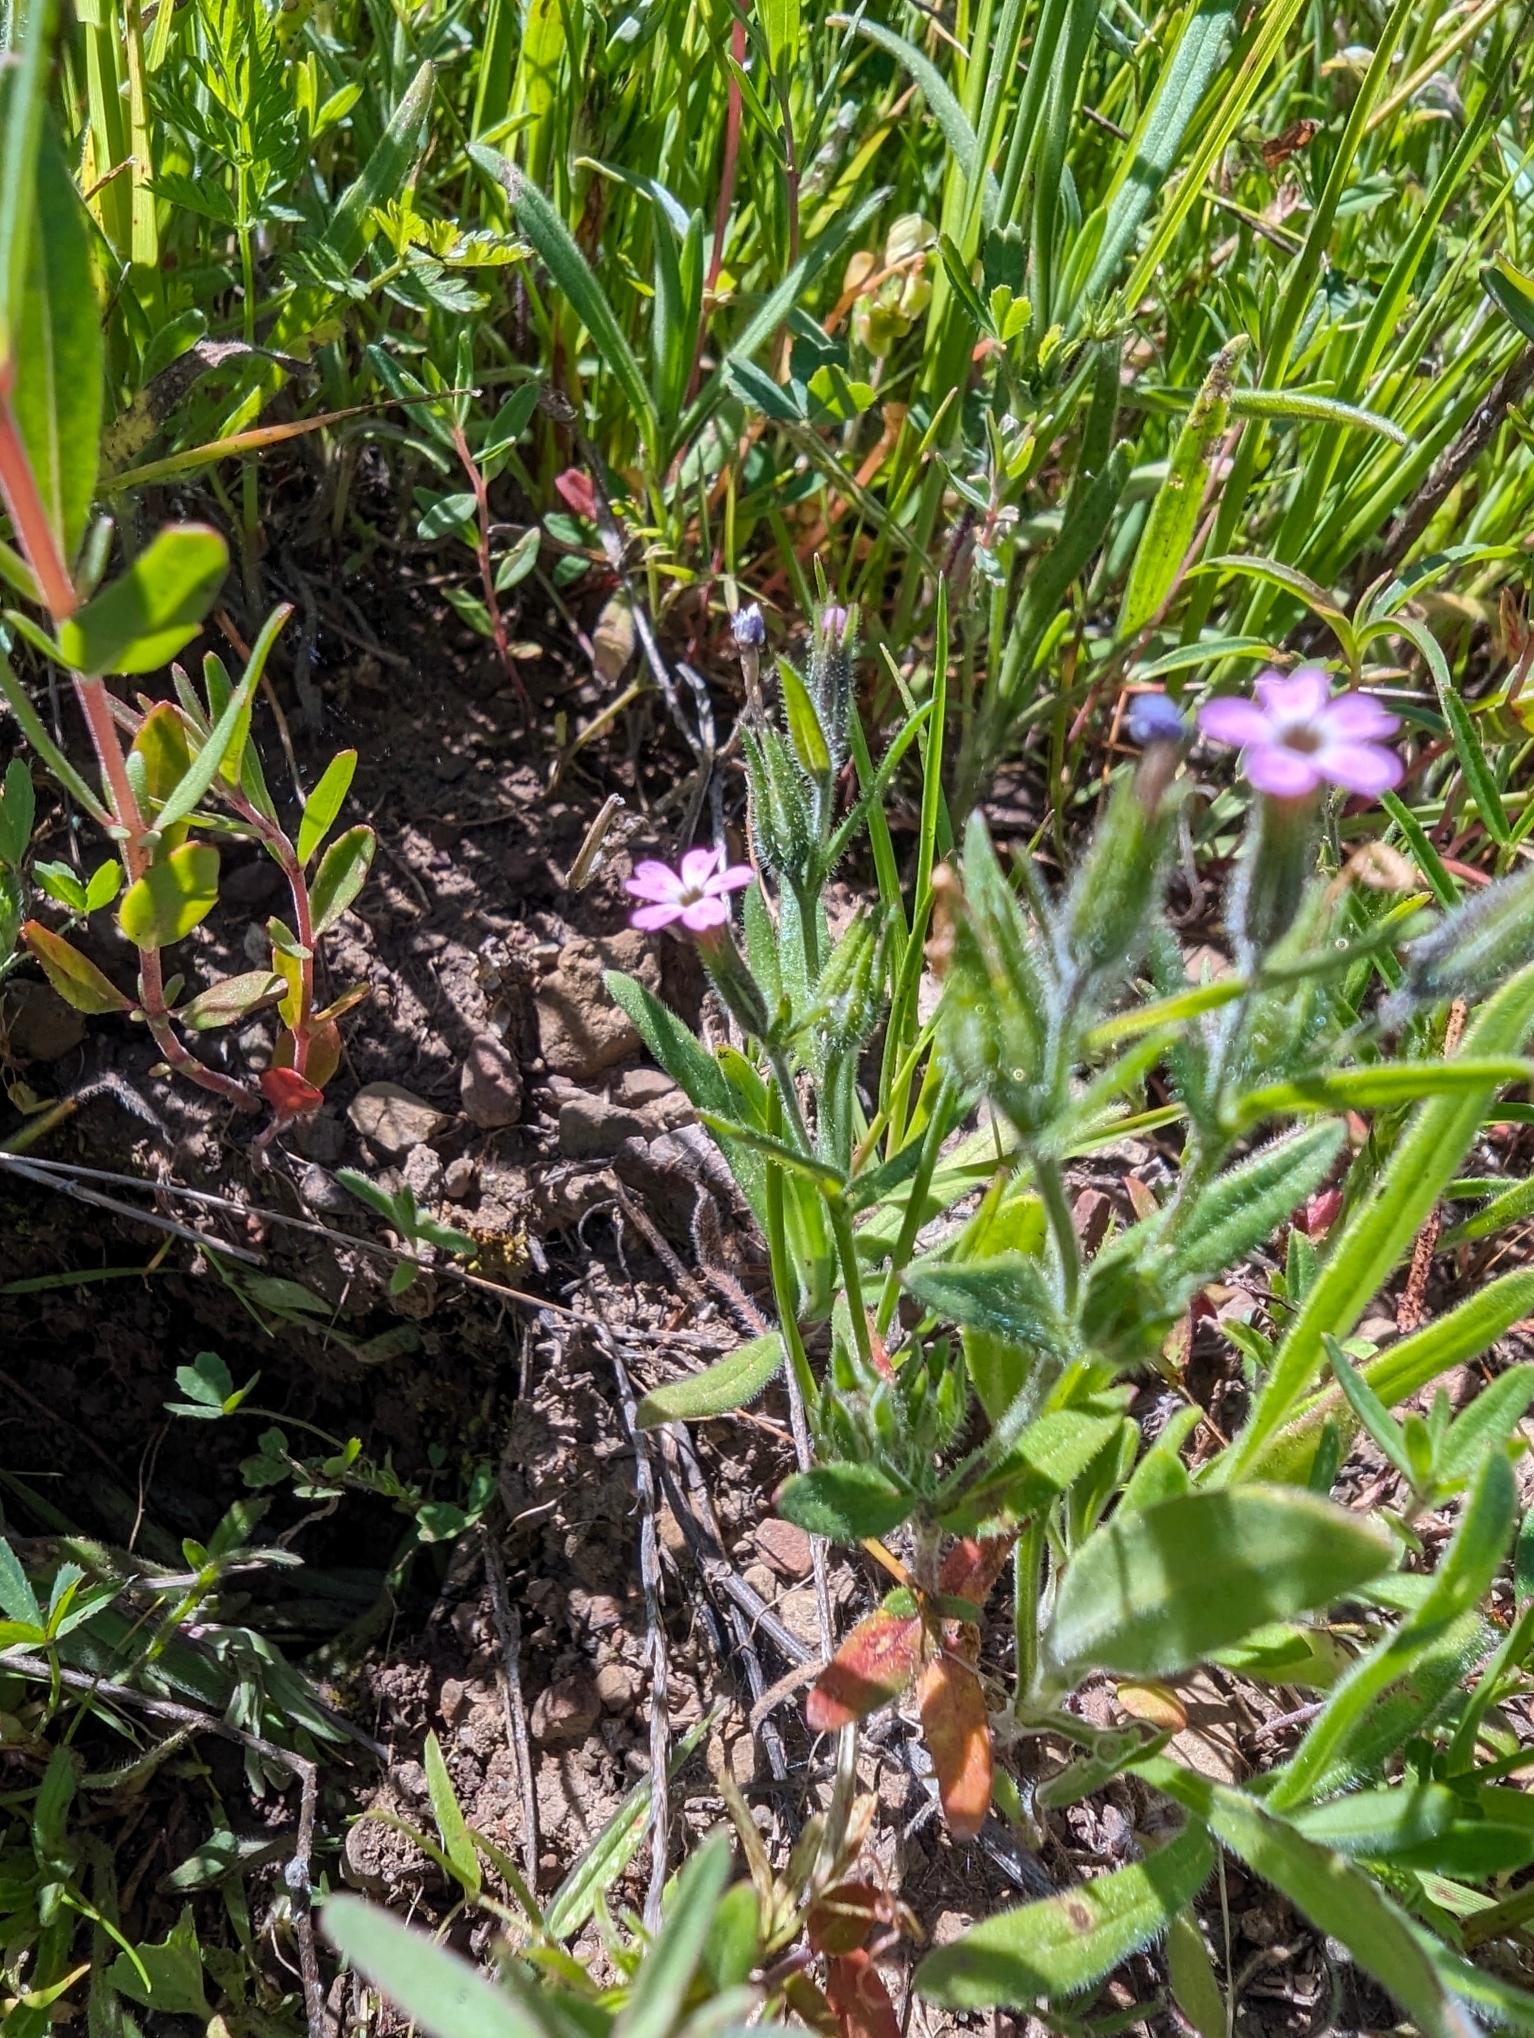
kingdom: Plantae
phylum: Tracheophyta
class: Magnoliopsida
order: Ericales
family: Polemoniaceae
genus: Phlox
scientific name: Phlox gracilis
